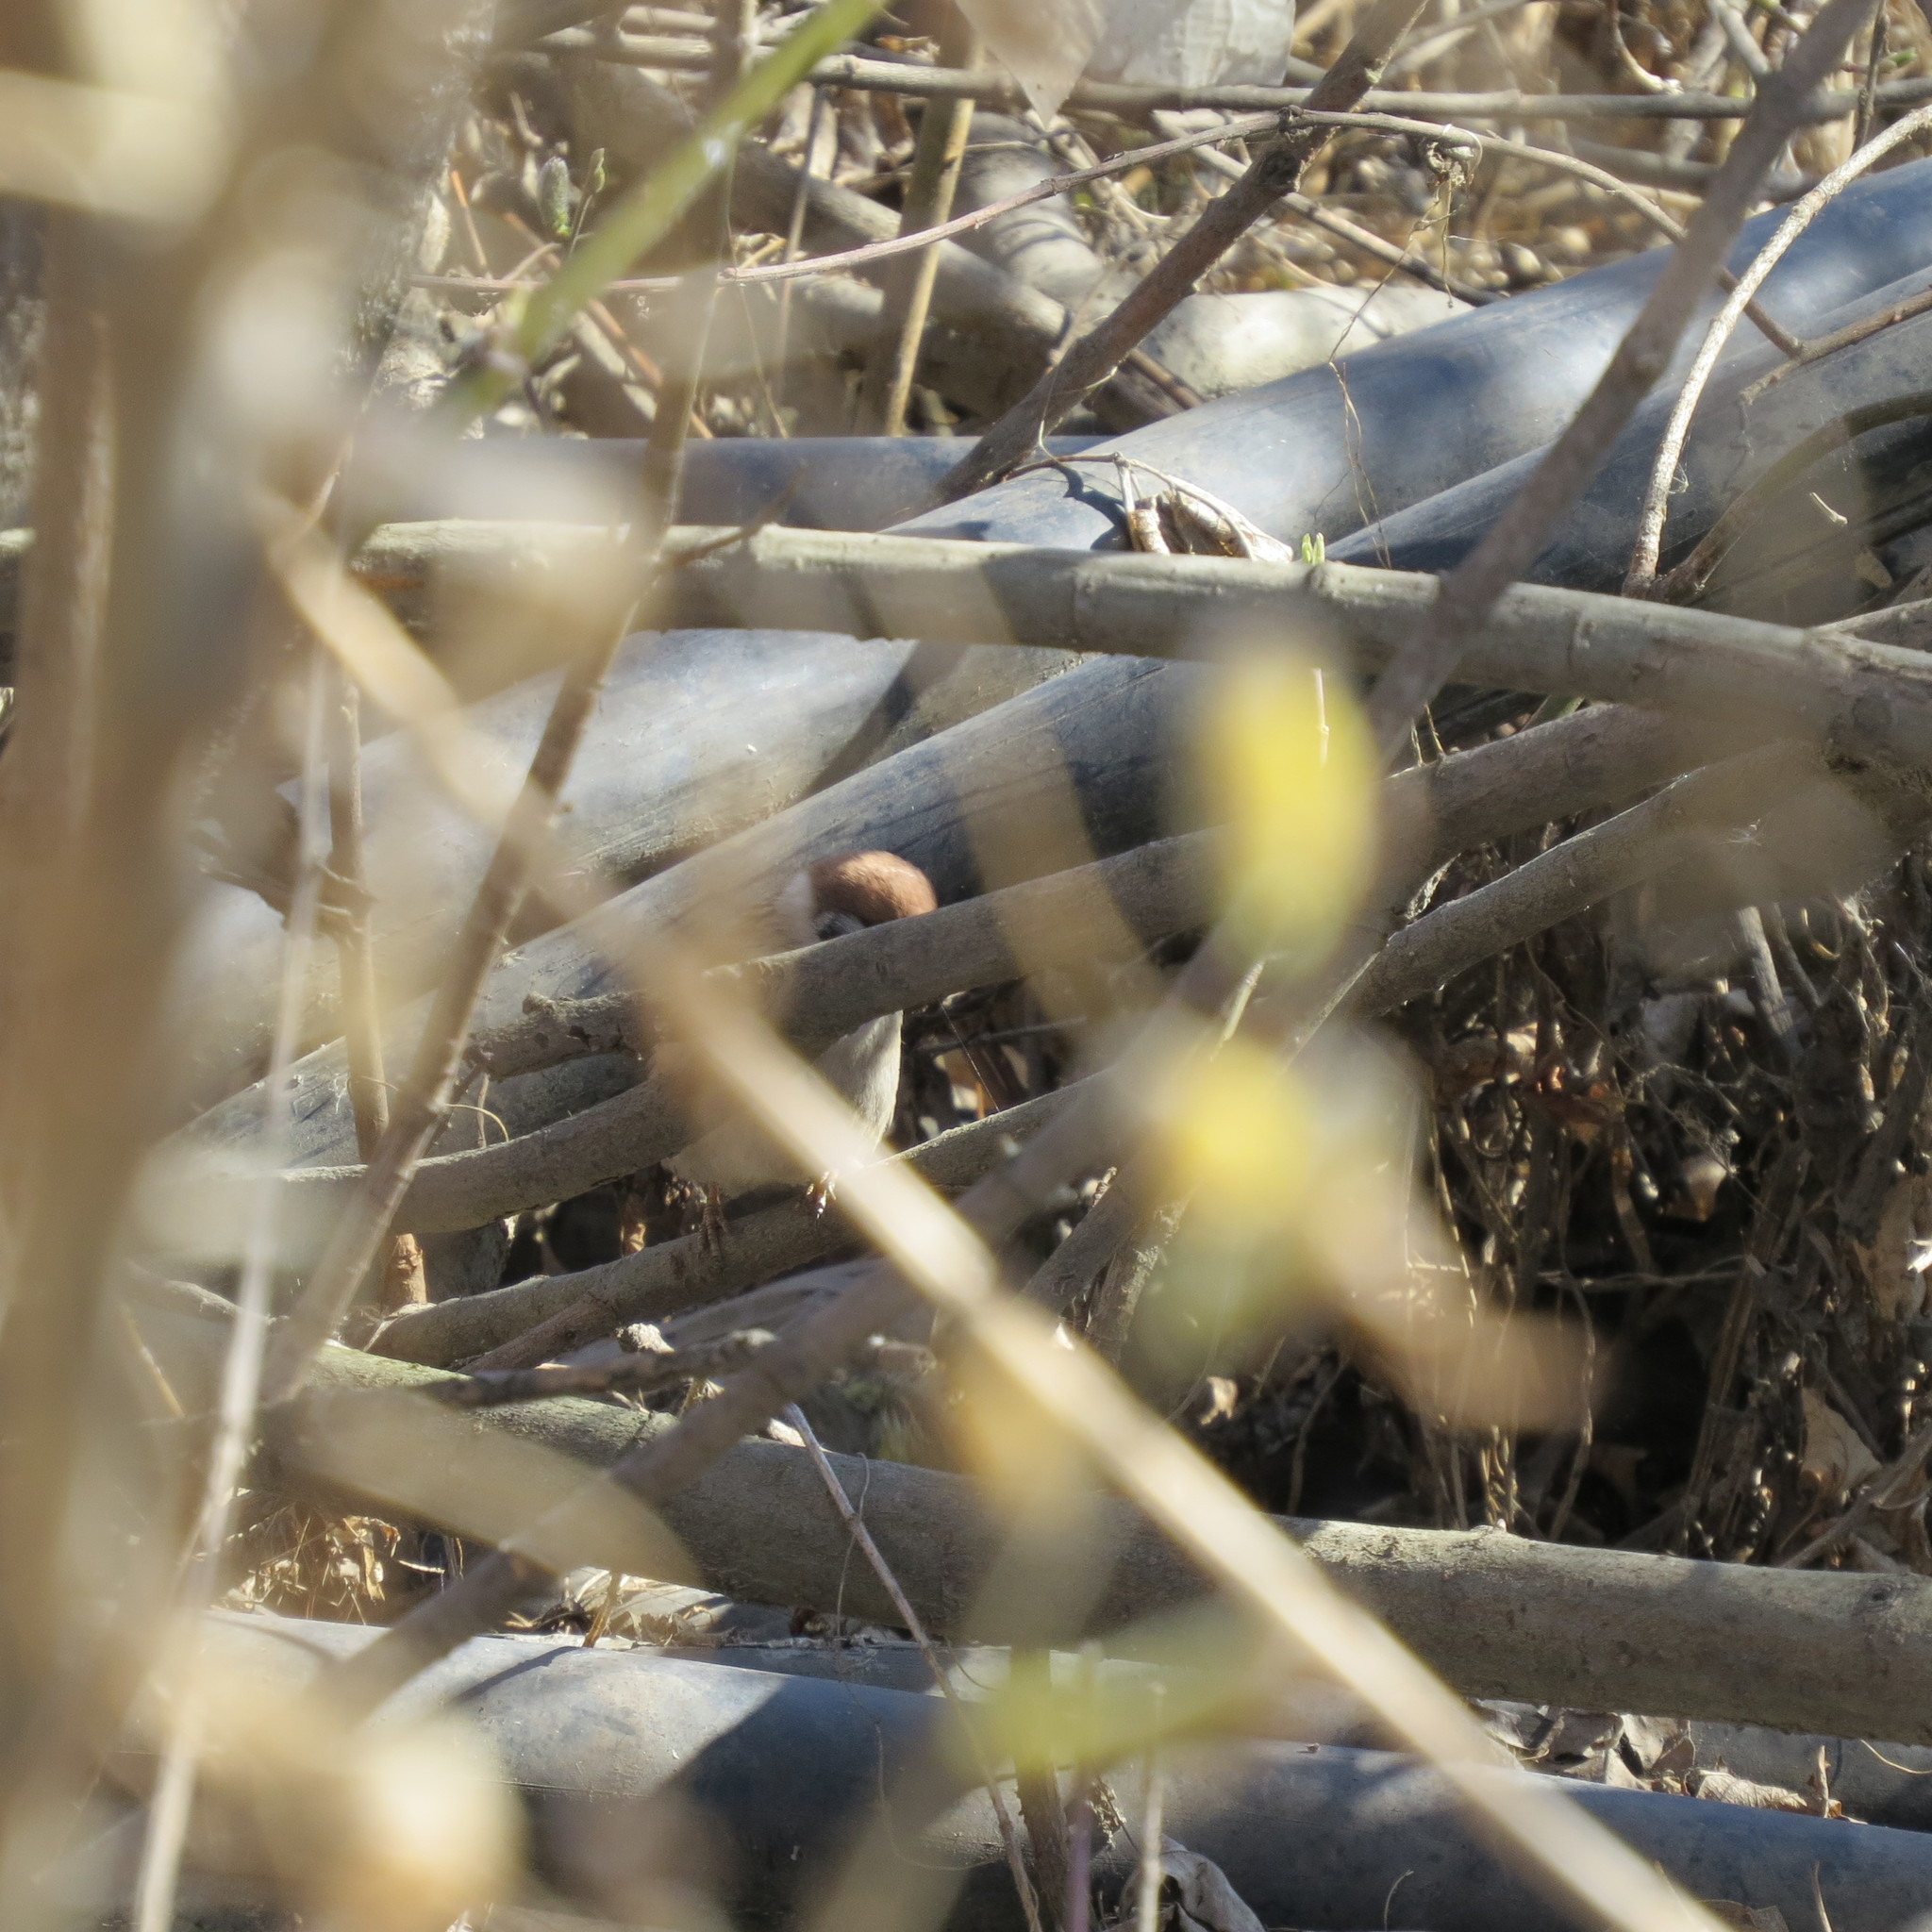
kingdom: Animalia
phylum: Chordata
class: Aves
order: Passeriformes
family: Passeridae
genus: Passer
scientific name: Passer montanus
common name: Eurasian tree sparrow
